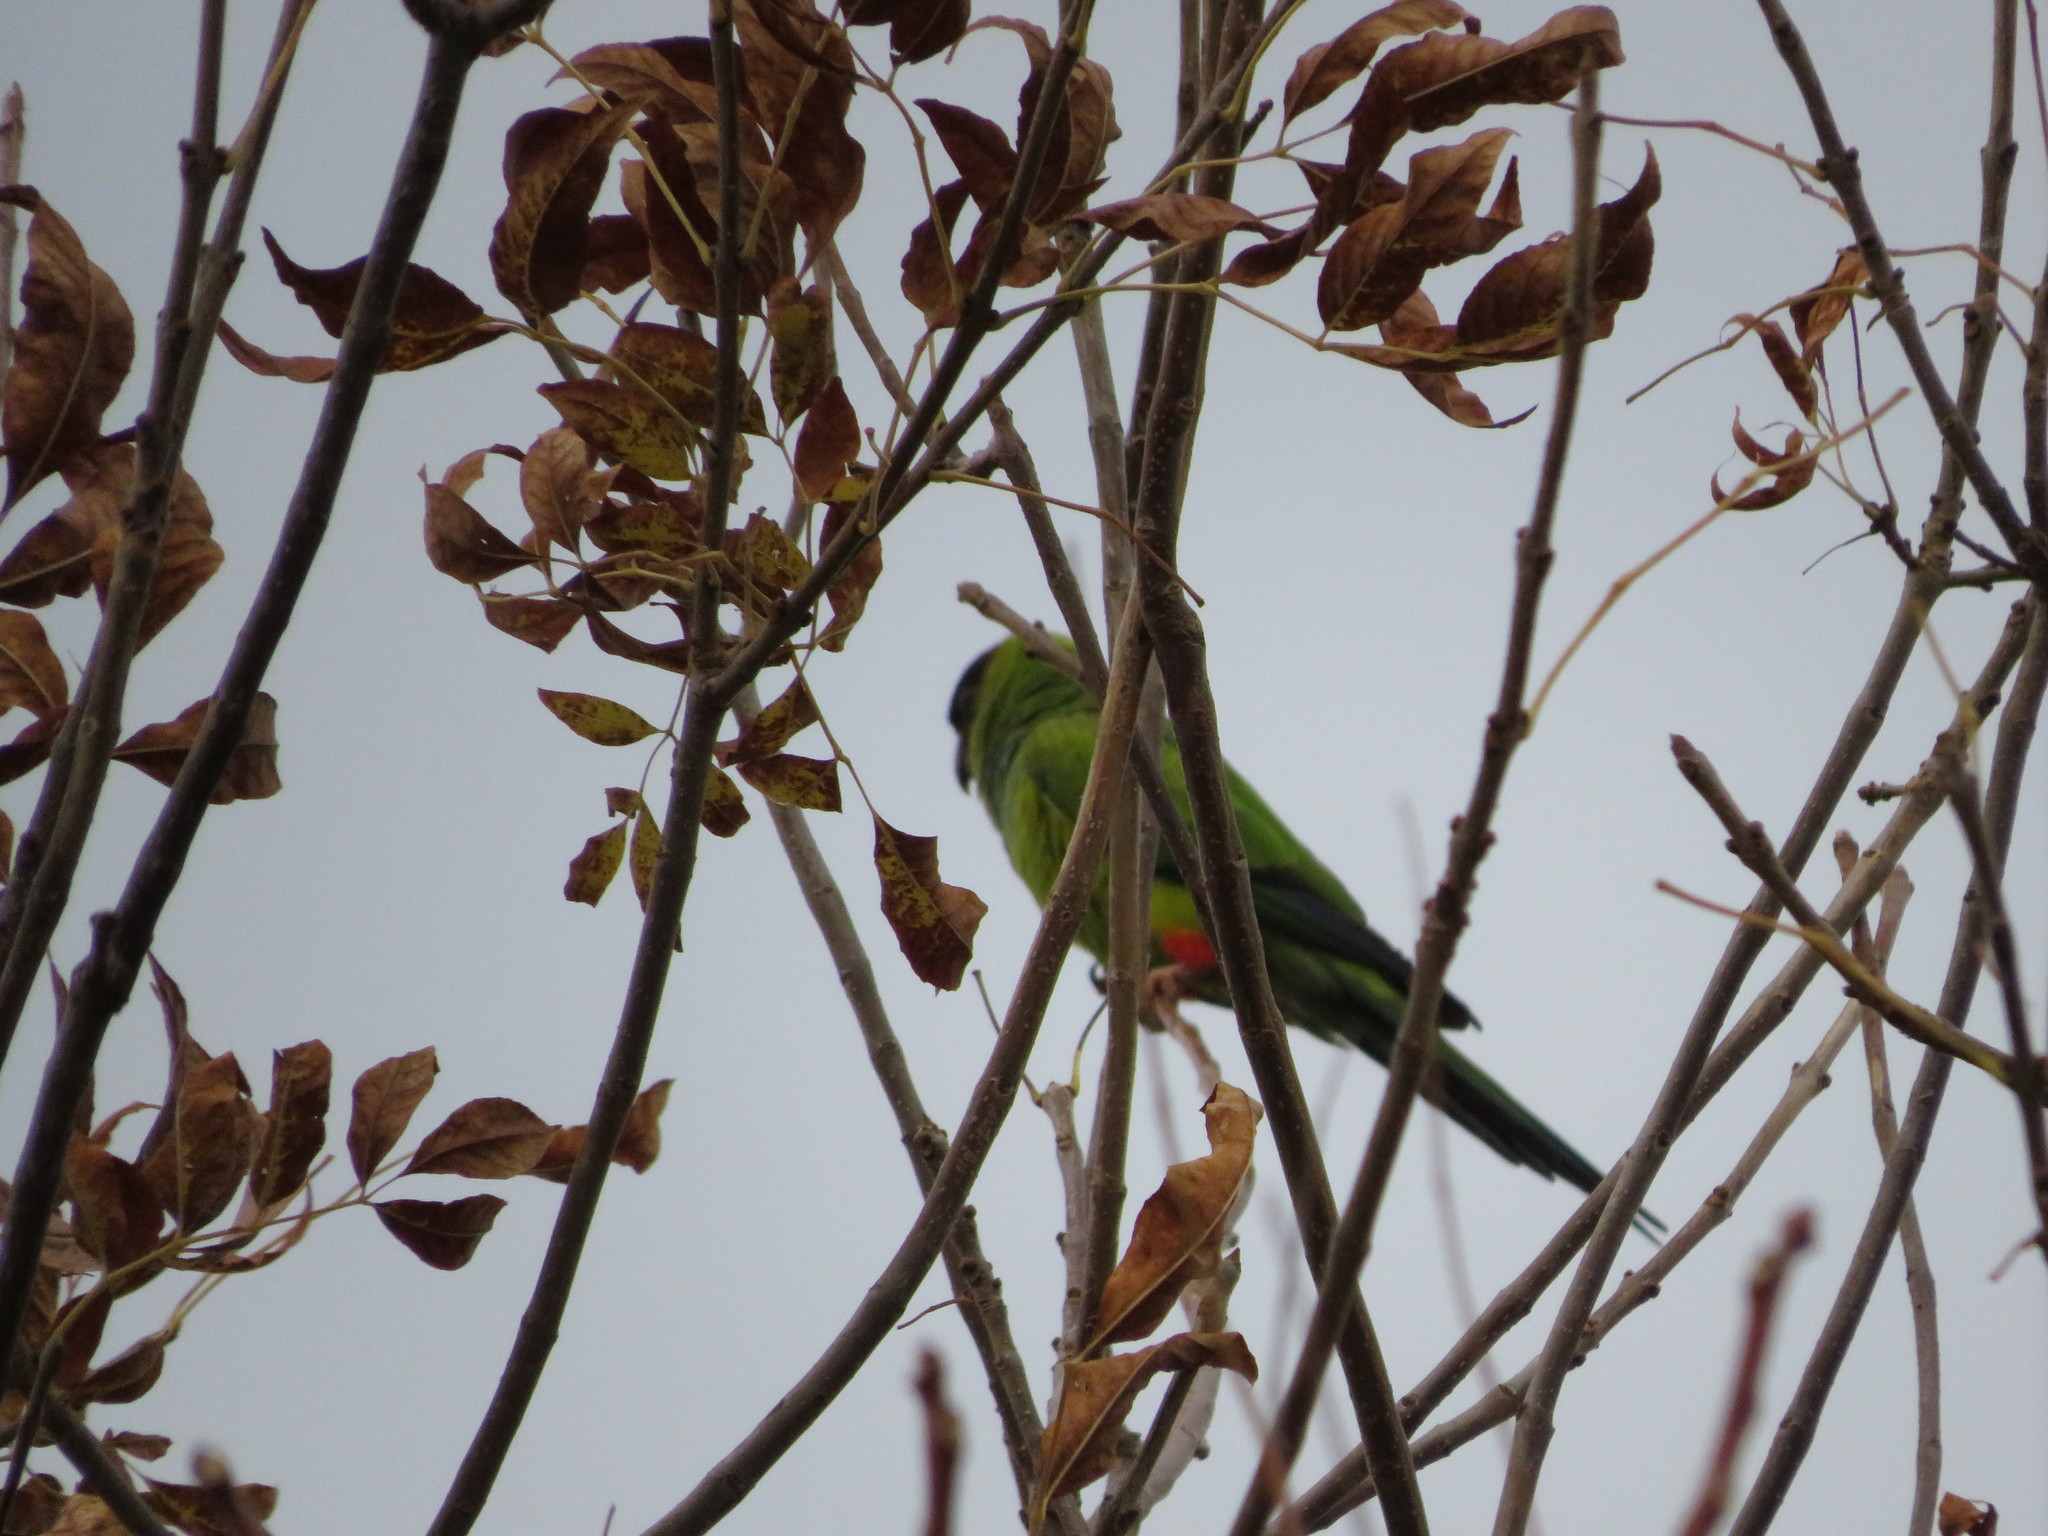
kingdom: Animalia
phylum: Chordata
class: Aves
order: Psittaciformes
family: Psittacidae
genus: Nandayus
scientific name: Nandayus nenday
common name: Nanday parakeet
